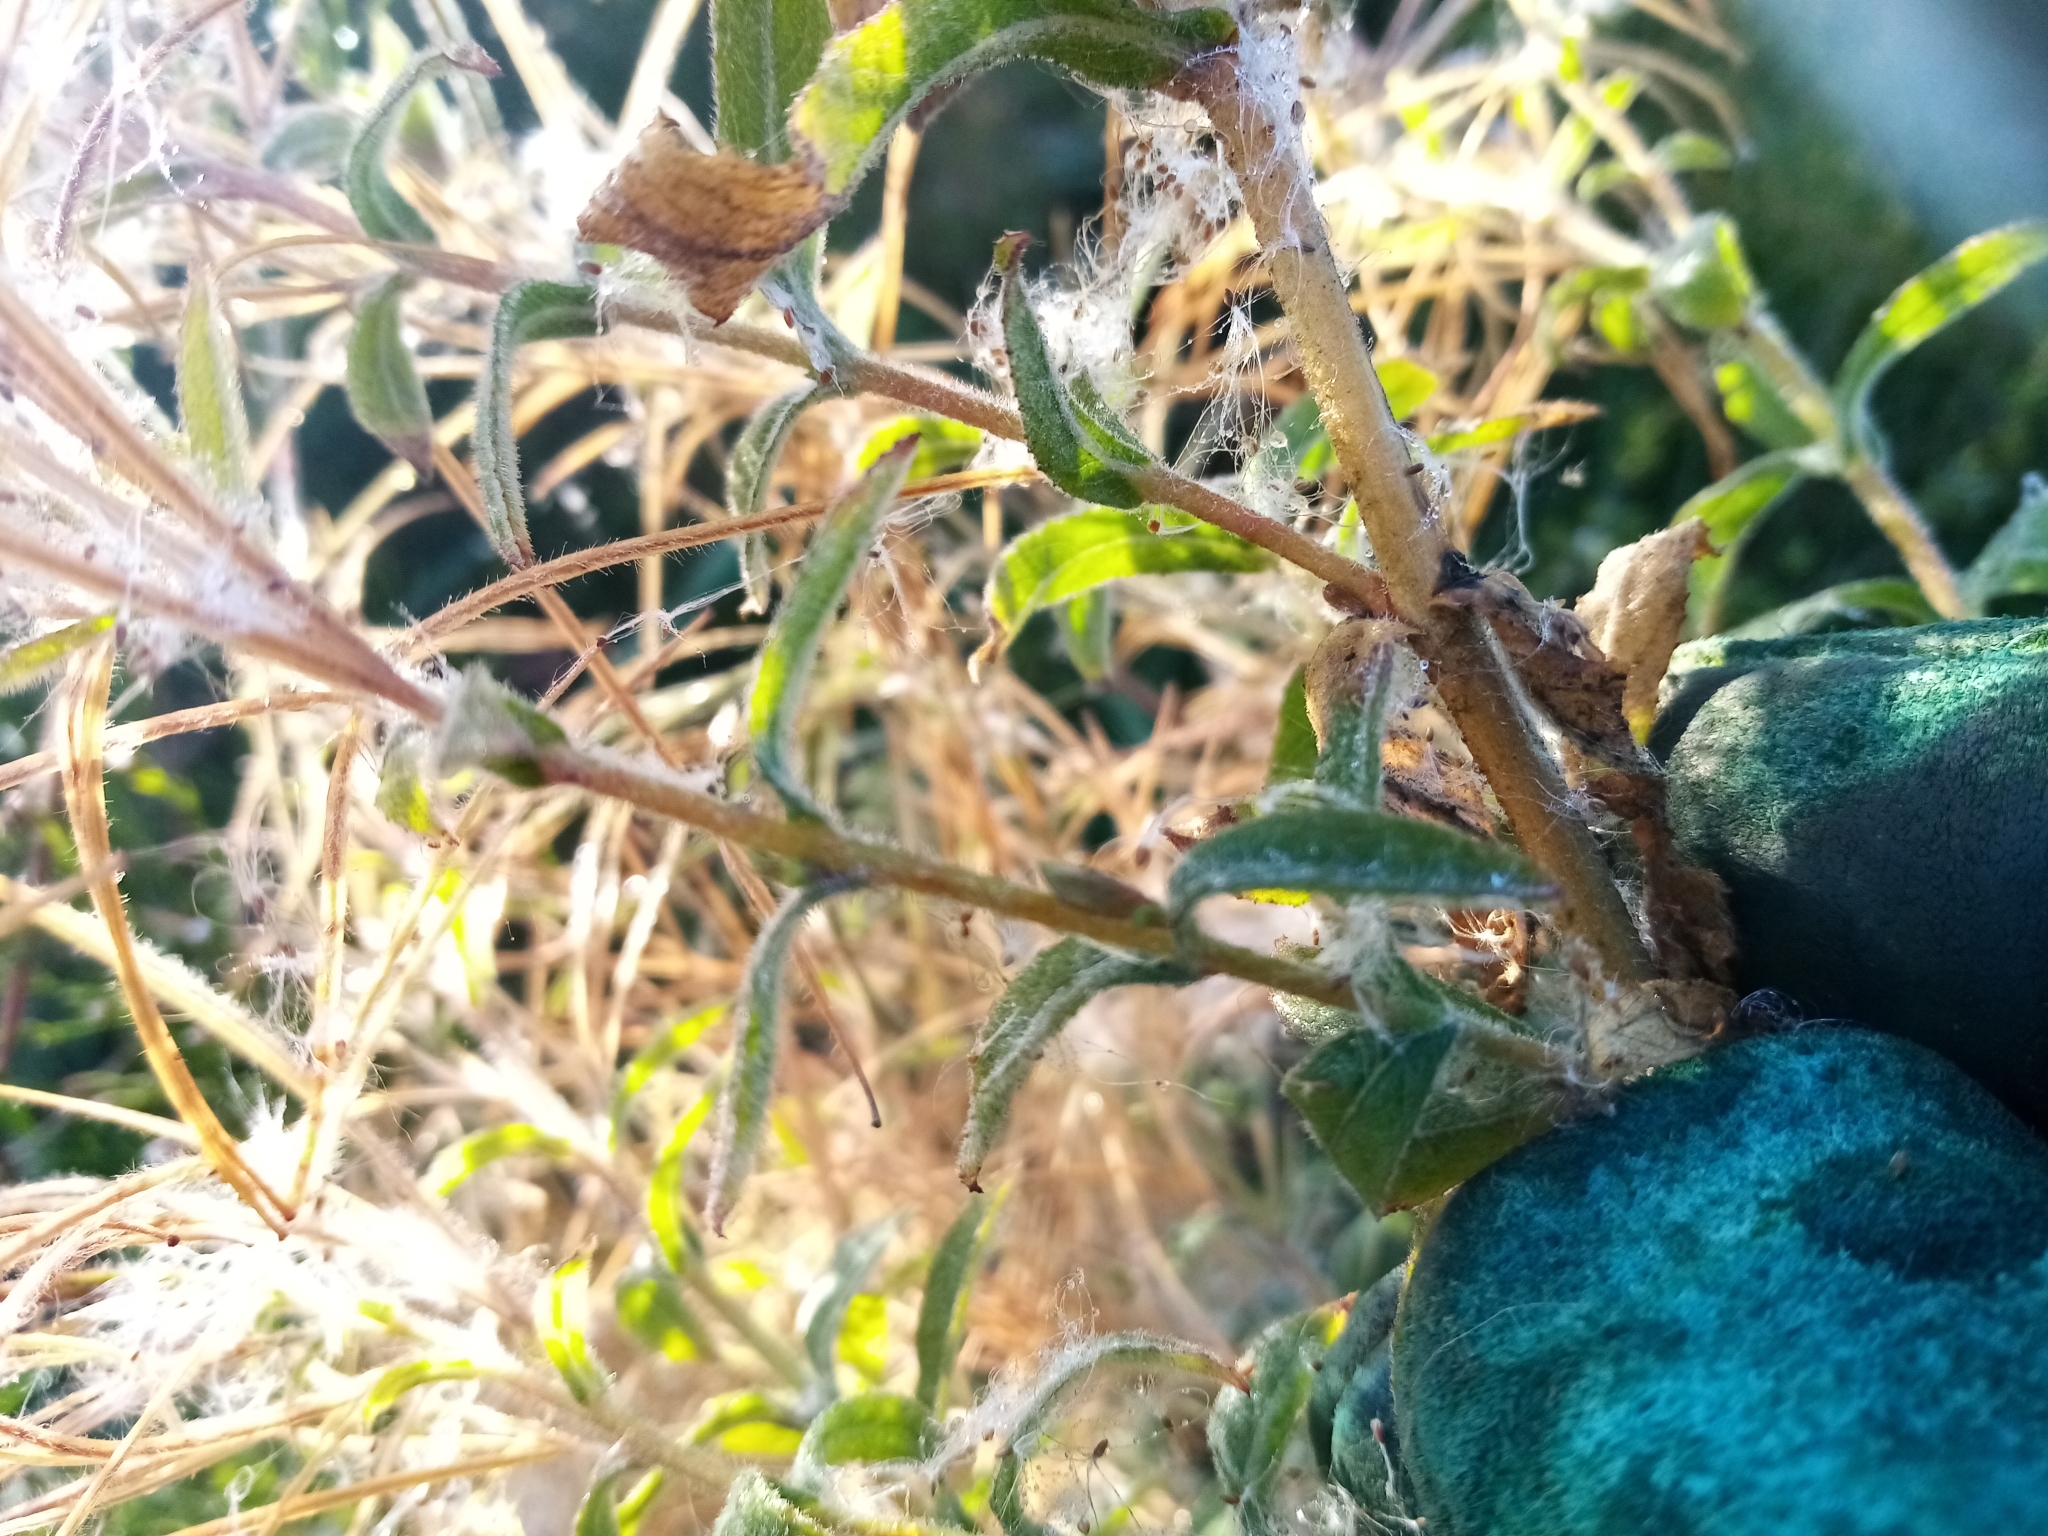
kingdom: Plantae
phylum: Tracheophyta
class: Magnoliopsida
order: Myrtales
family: Onagraceae
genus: Epilobium
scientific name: Epilobium hirsutum
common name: Great willowherb
